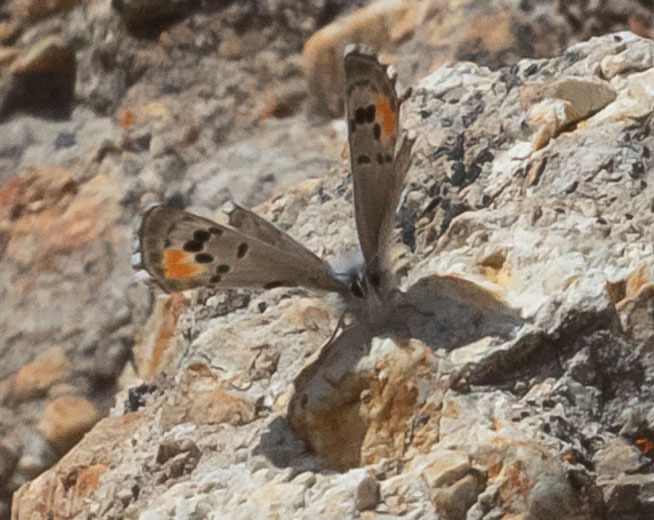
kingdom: Animalia
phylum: Arthropoda
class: Insecta
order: Lepidoptera
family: Lycaenidae
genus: Philotes
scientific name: Philotes sonorensis
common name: Sonoran blue
